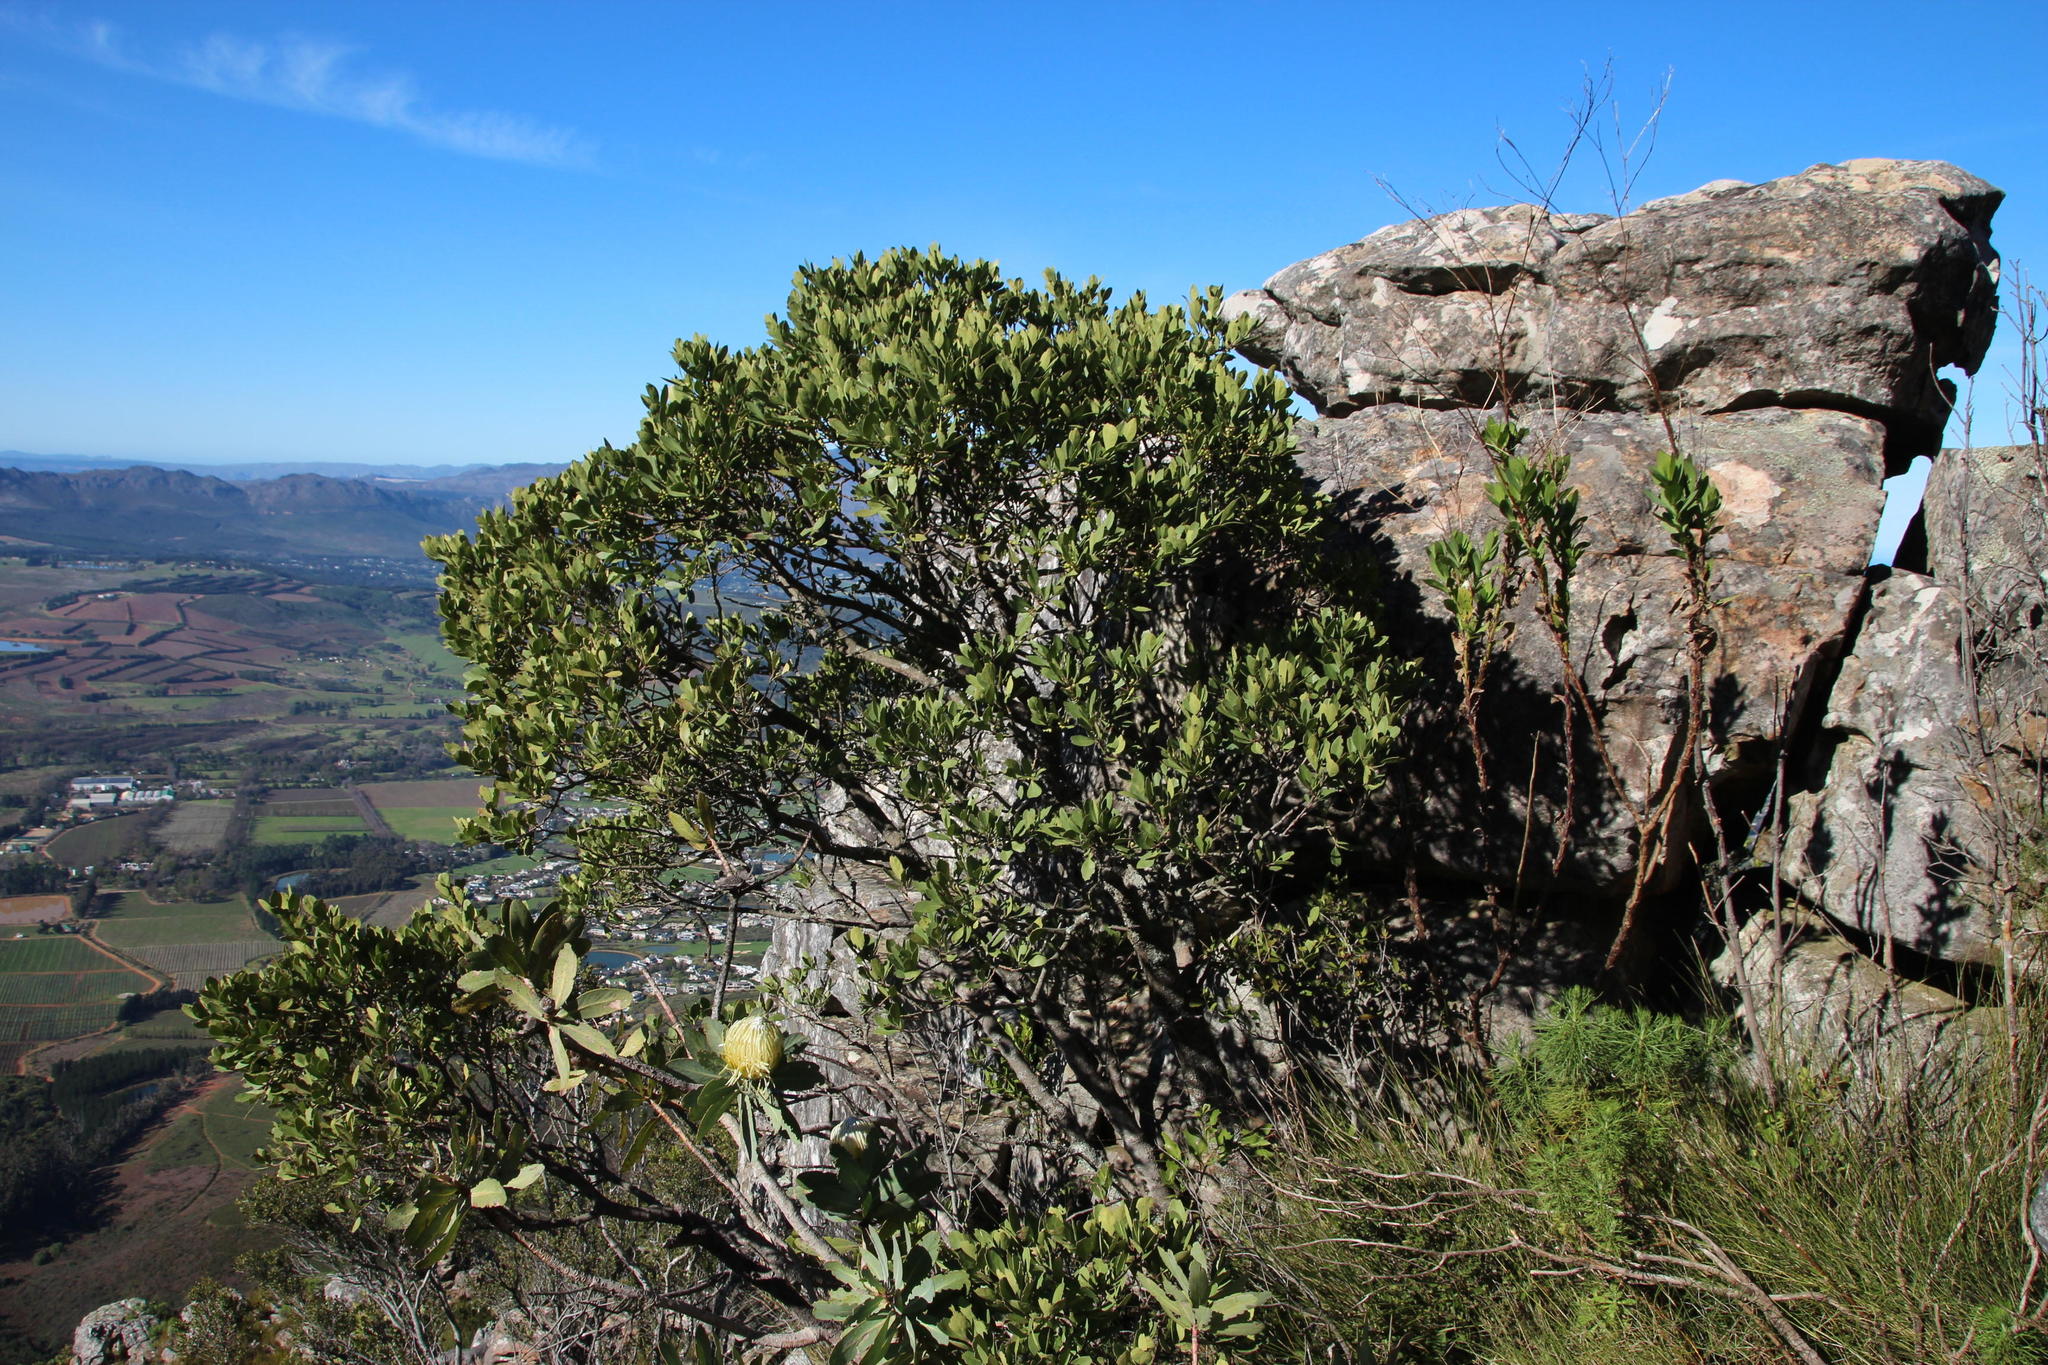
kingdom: Plantae
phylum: Tracheophyta
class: Magnoliopsida
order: Celastrales
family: Celastraceae
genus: Gymnosporia
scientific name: Gymnosporia laurina
